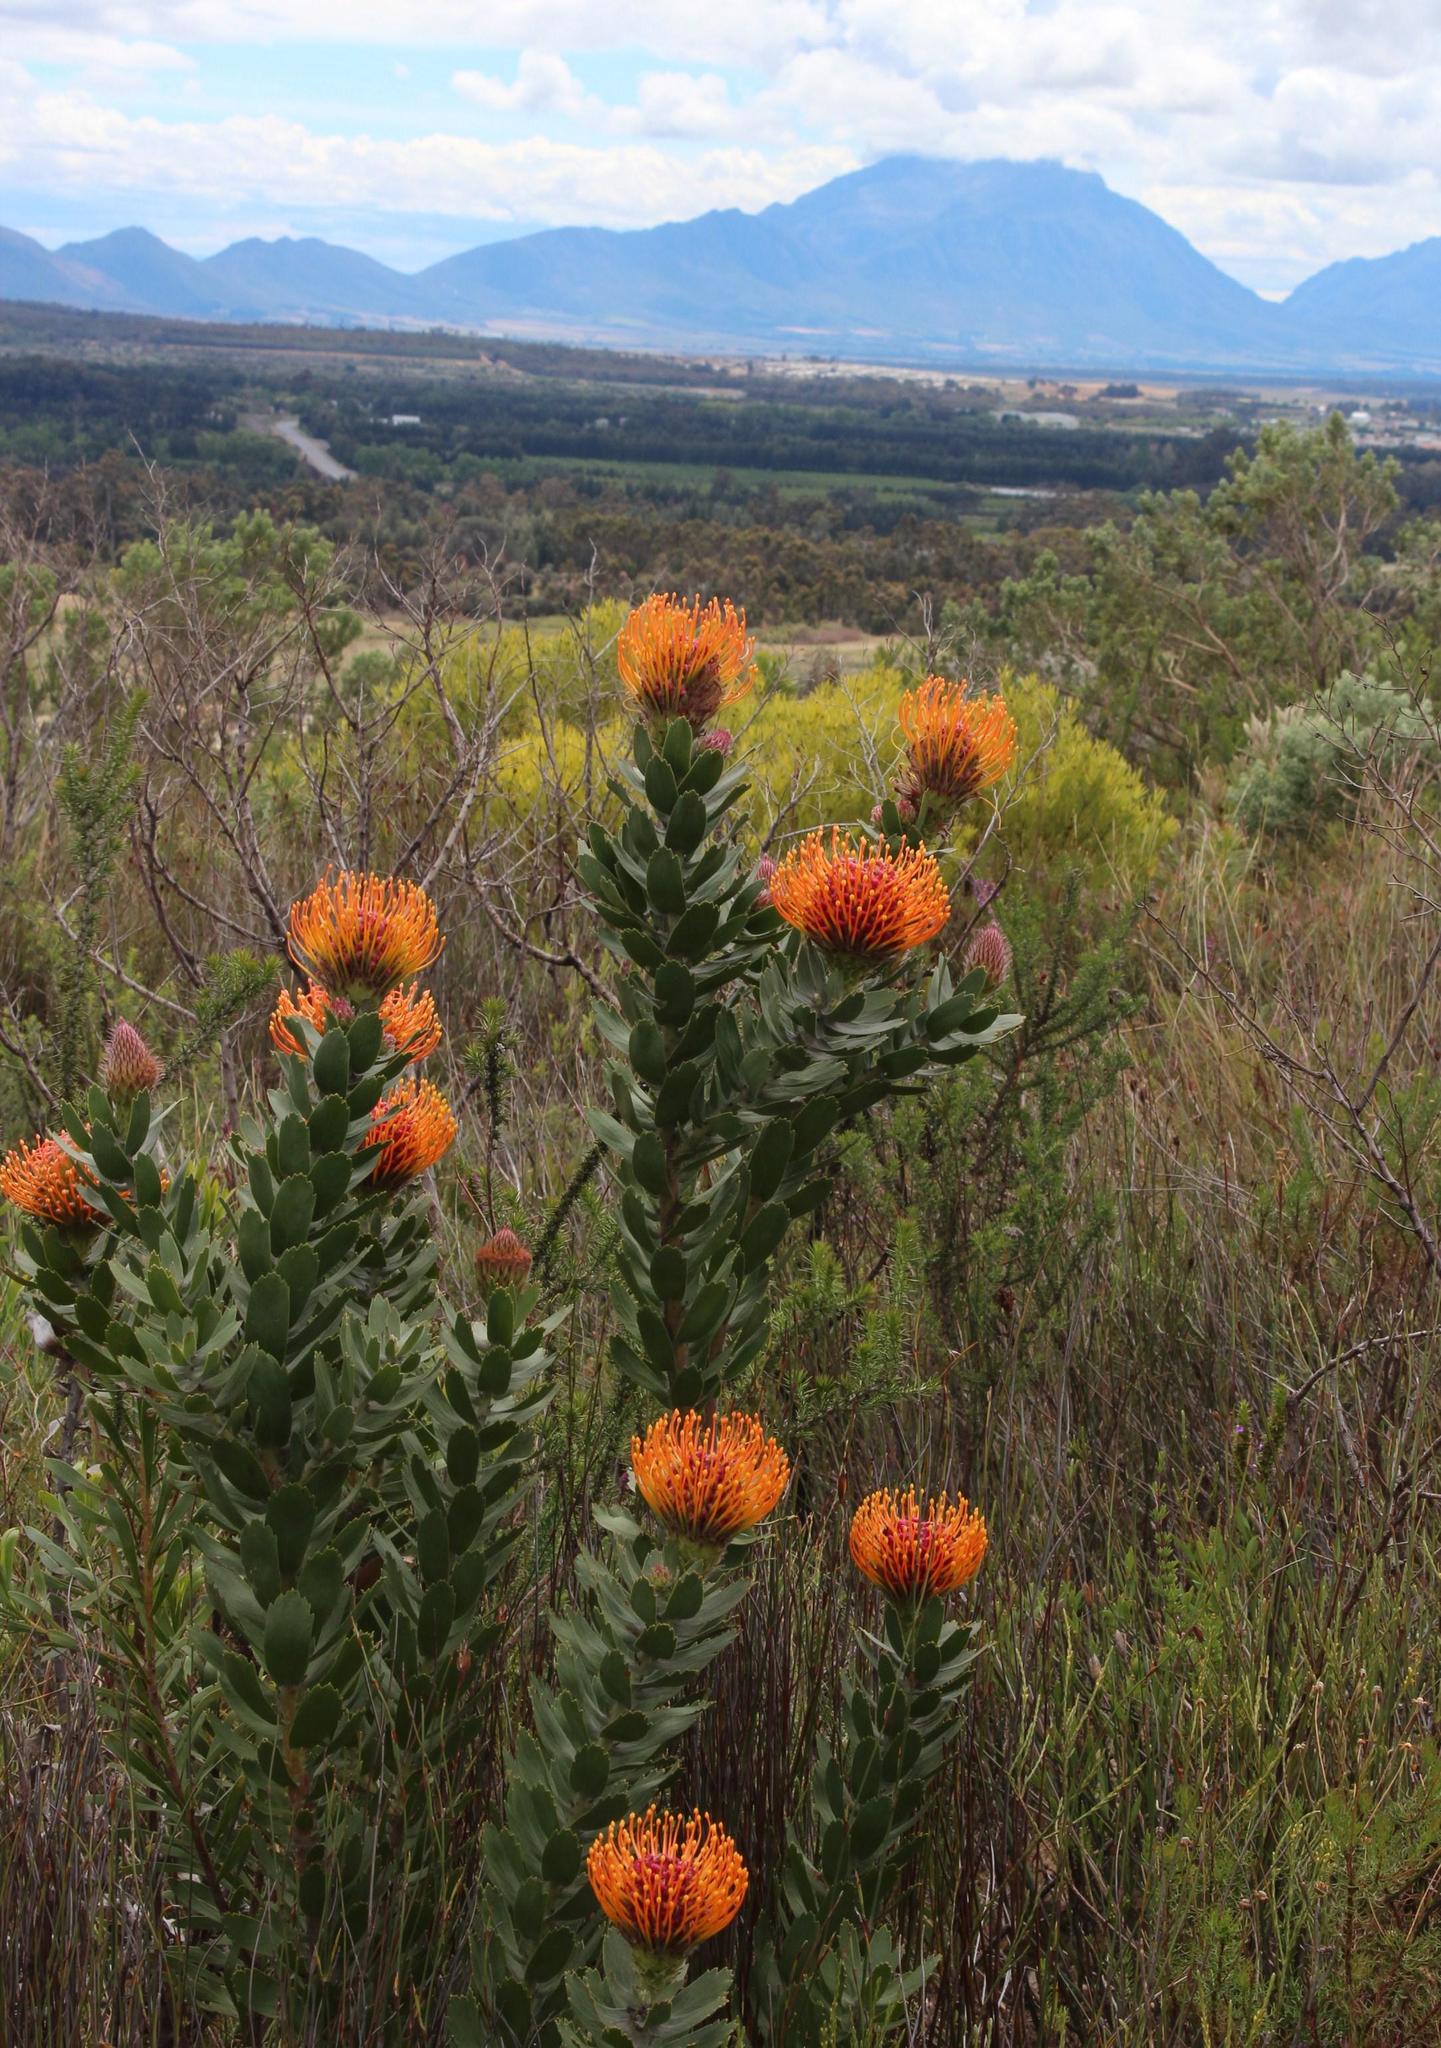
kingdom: Plantae
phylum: Tracheophyta
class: Magnoliopsida
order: Proteales
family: Proteaceae
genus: Leucospermum
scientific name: Leucospermum vestitum
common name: Silky-hair pincushion
